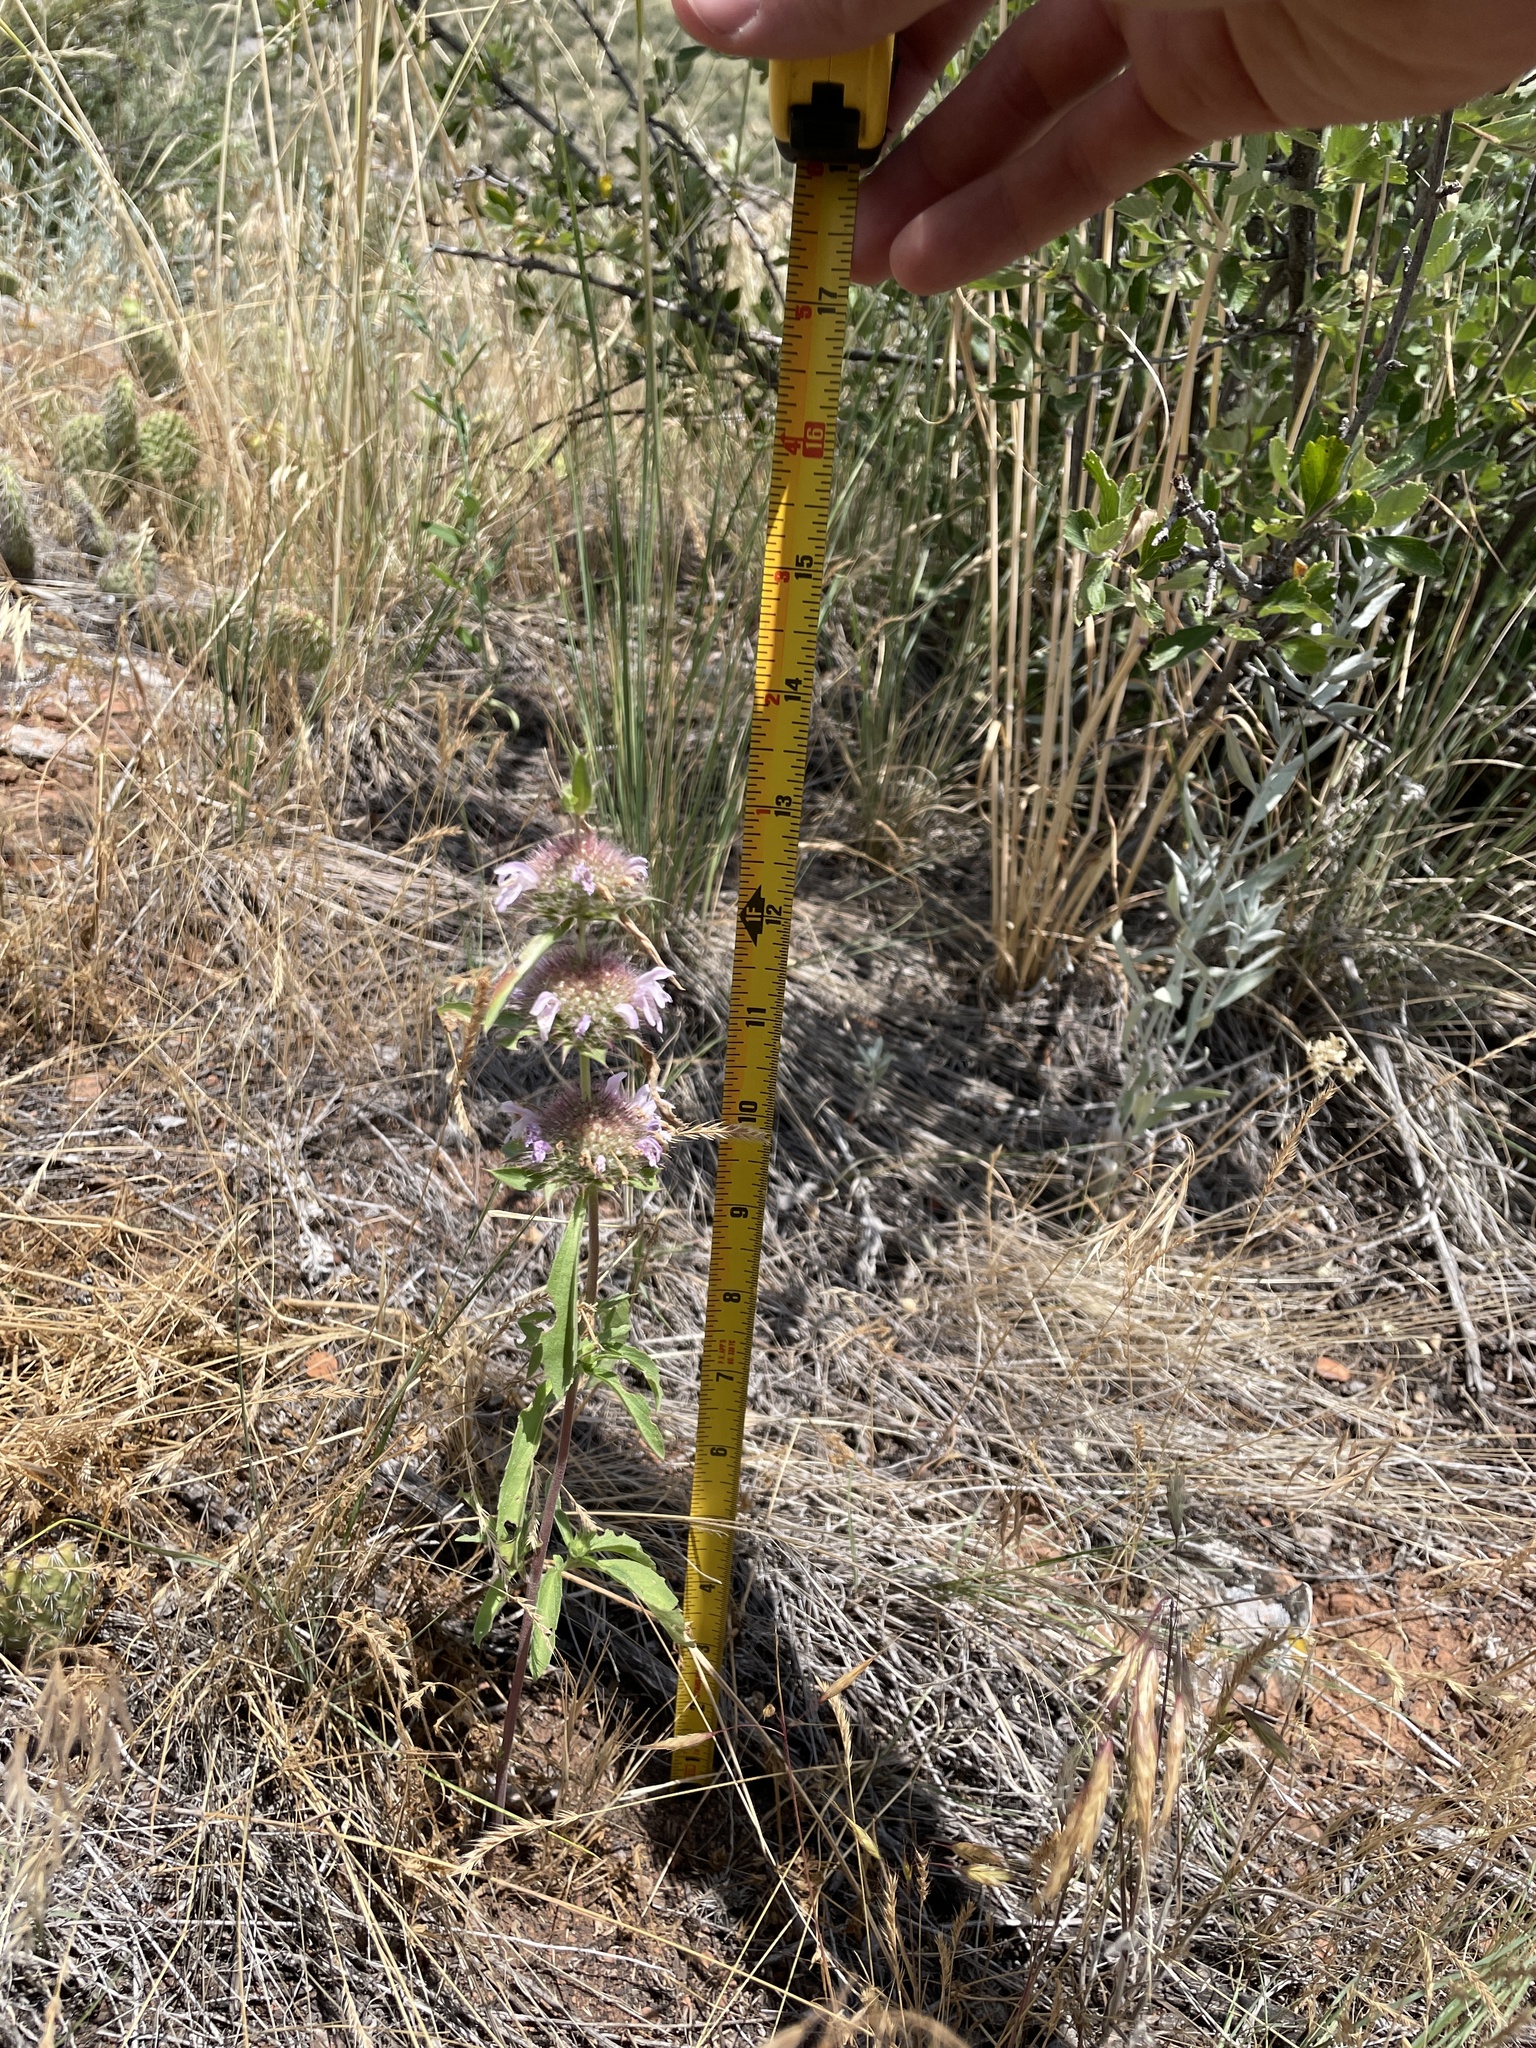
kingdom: Plantae
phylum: Tracheophyta
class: Magnoliopsida
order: Lamiales
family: Lamiaceae
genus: Monarda
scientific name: Monarda pectinata
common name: Plains beebalm
